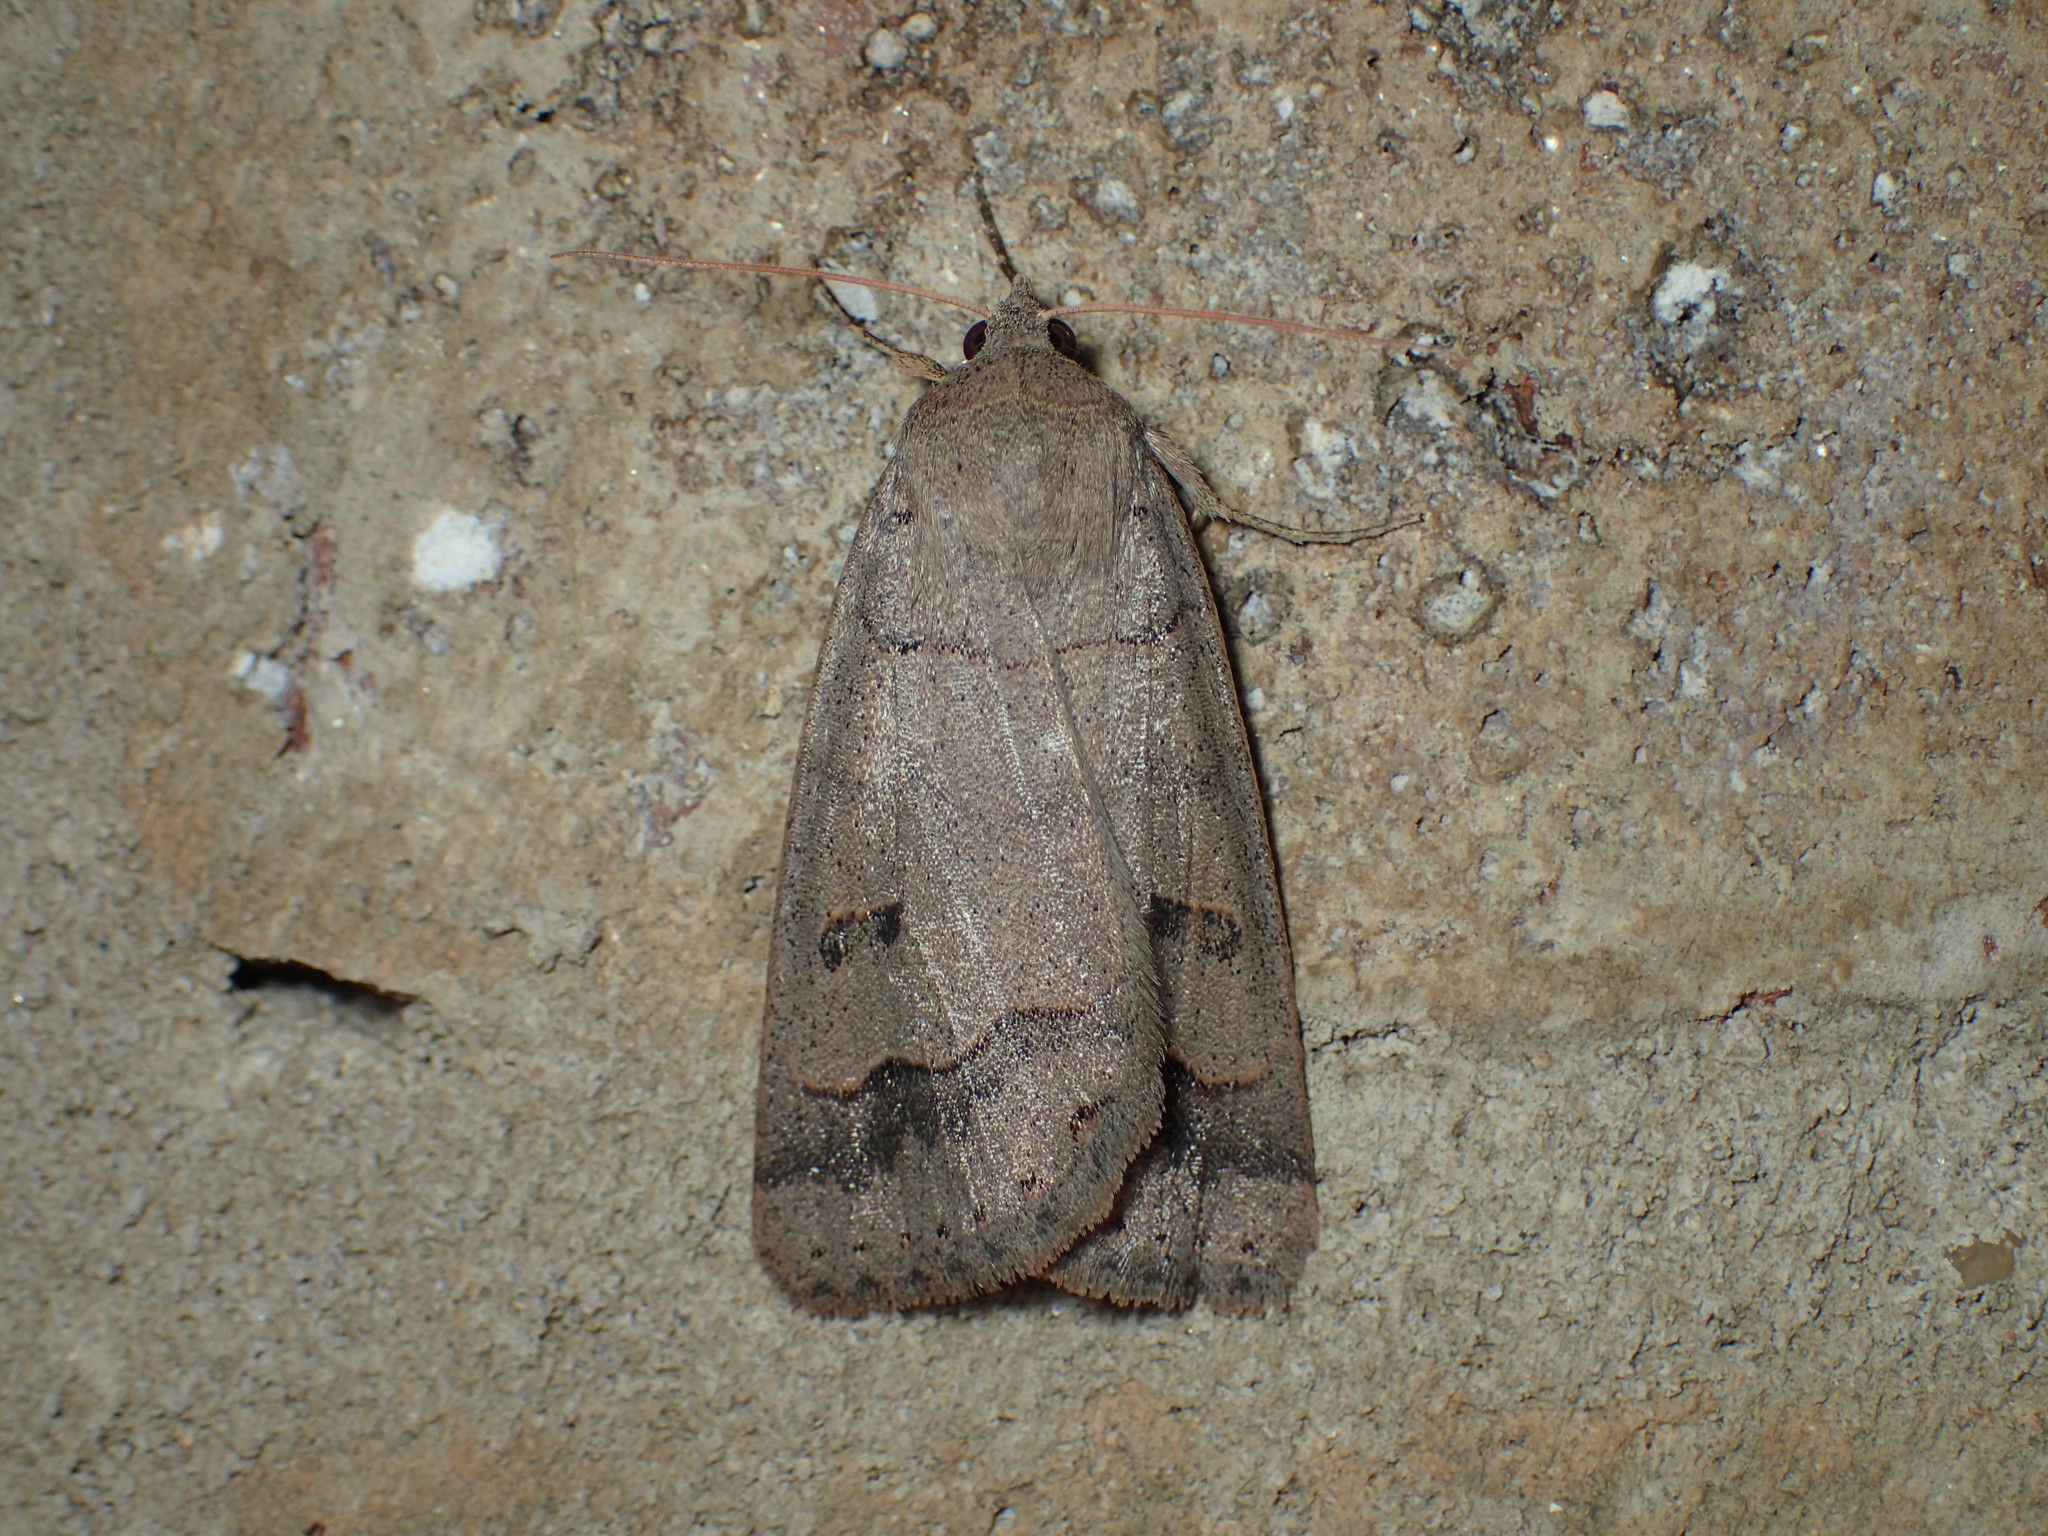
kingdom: Animalia
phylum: Arthropoda
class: Insecta
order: Lepidoptera
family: Erebidae
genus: Phoberia
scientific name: Phoberia atomaris
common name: Common oak moth
